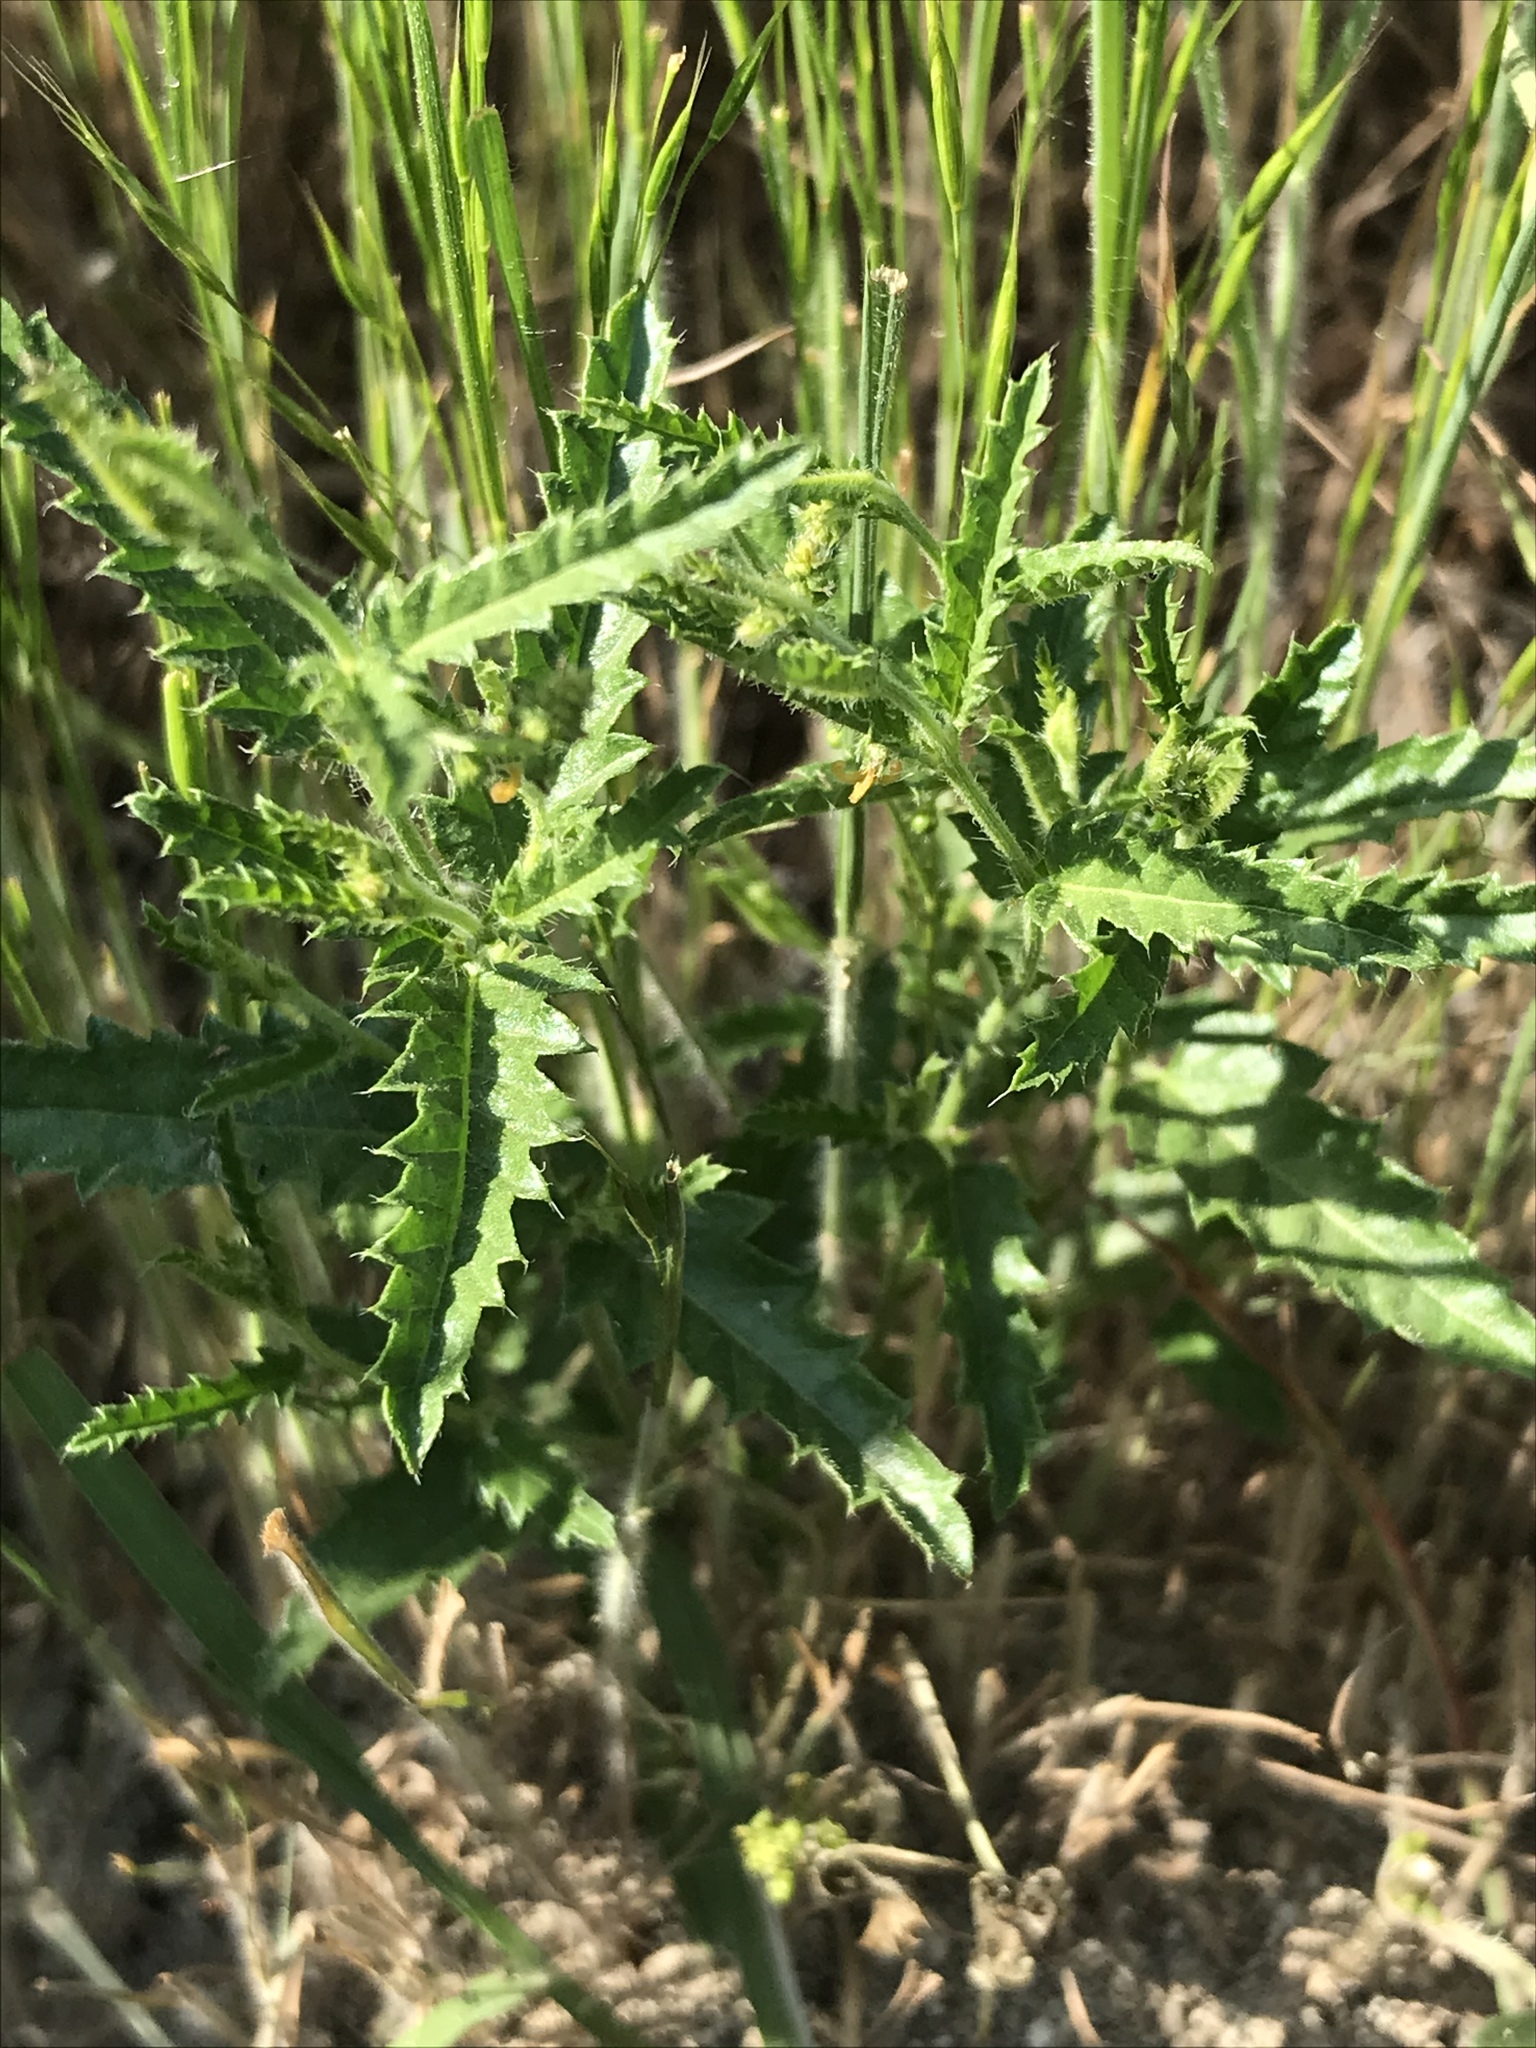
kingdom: Plantae
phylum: Tracheophyta
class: Magnoliopsida
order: Malpighiales
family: Euphorbiaceae
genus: Tragia
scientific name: Tragia ramosa
